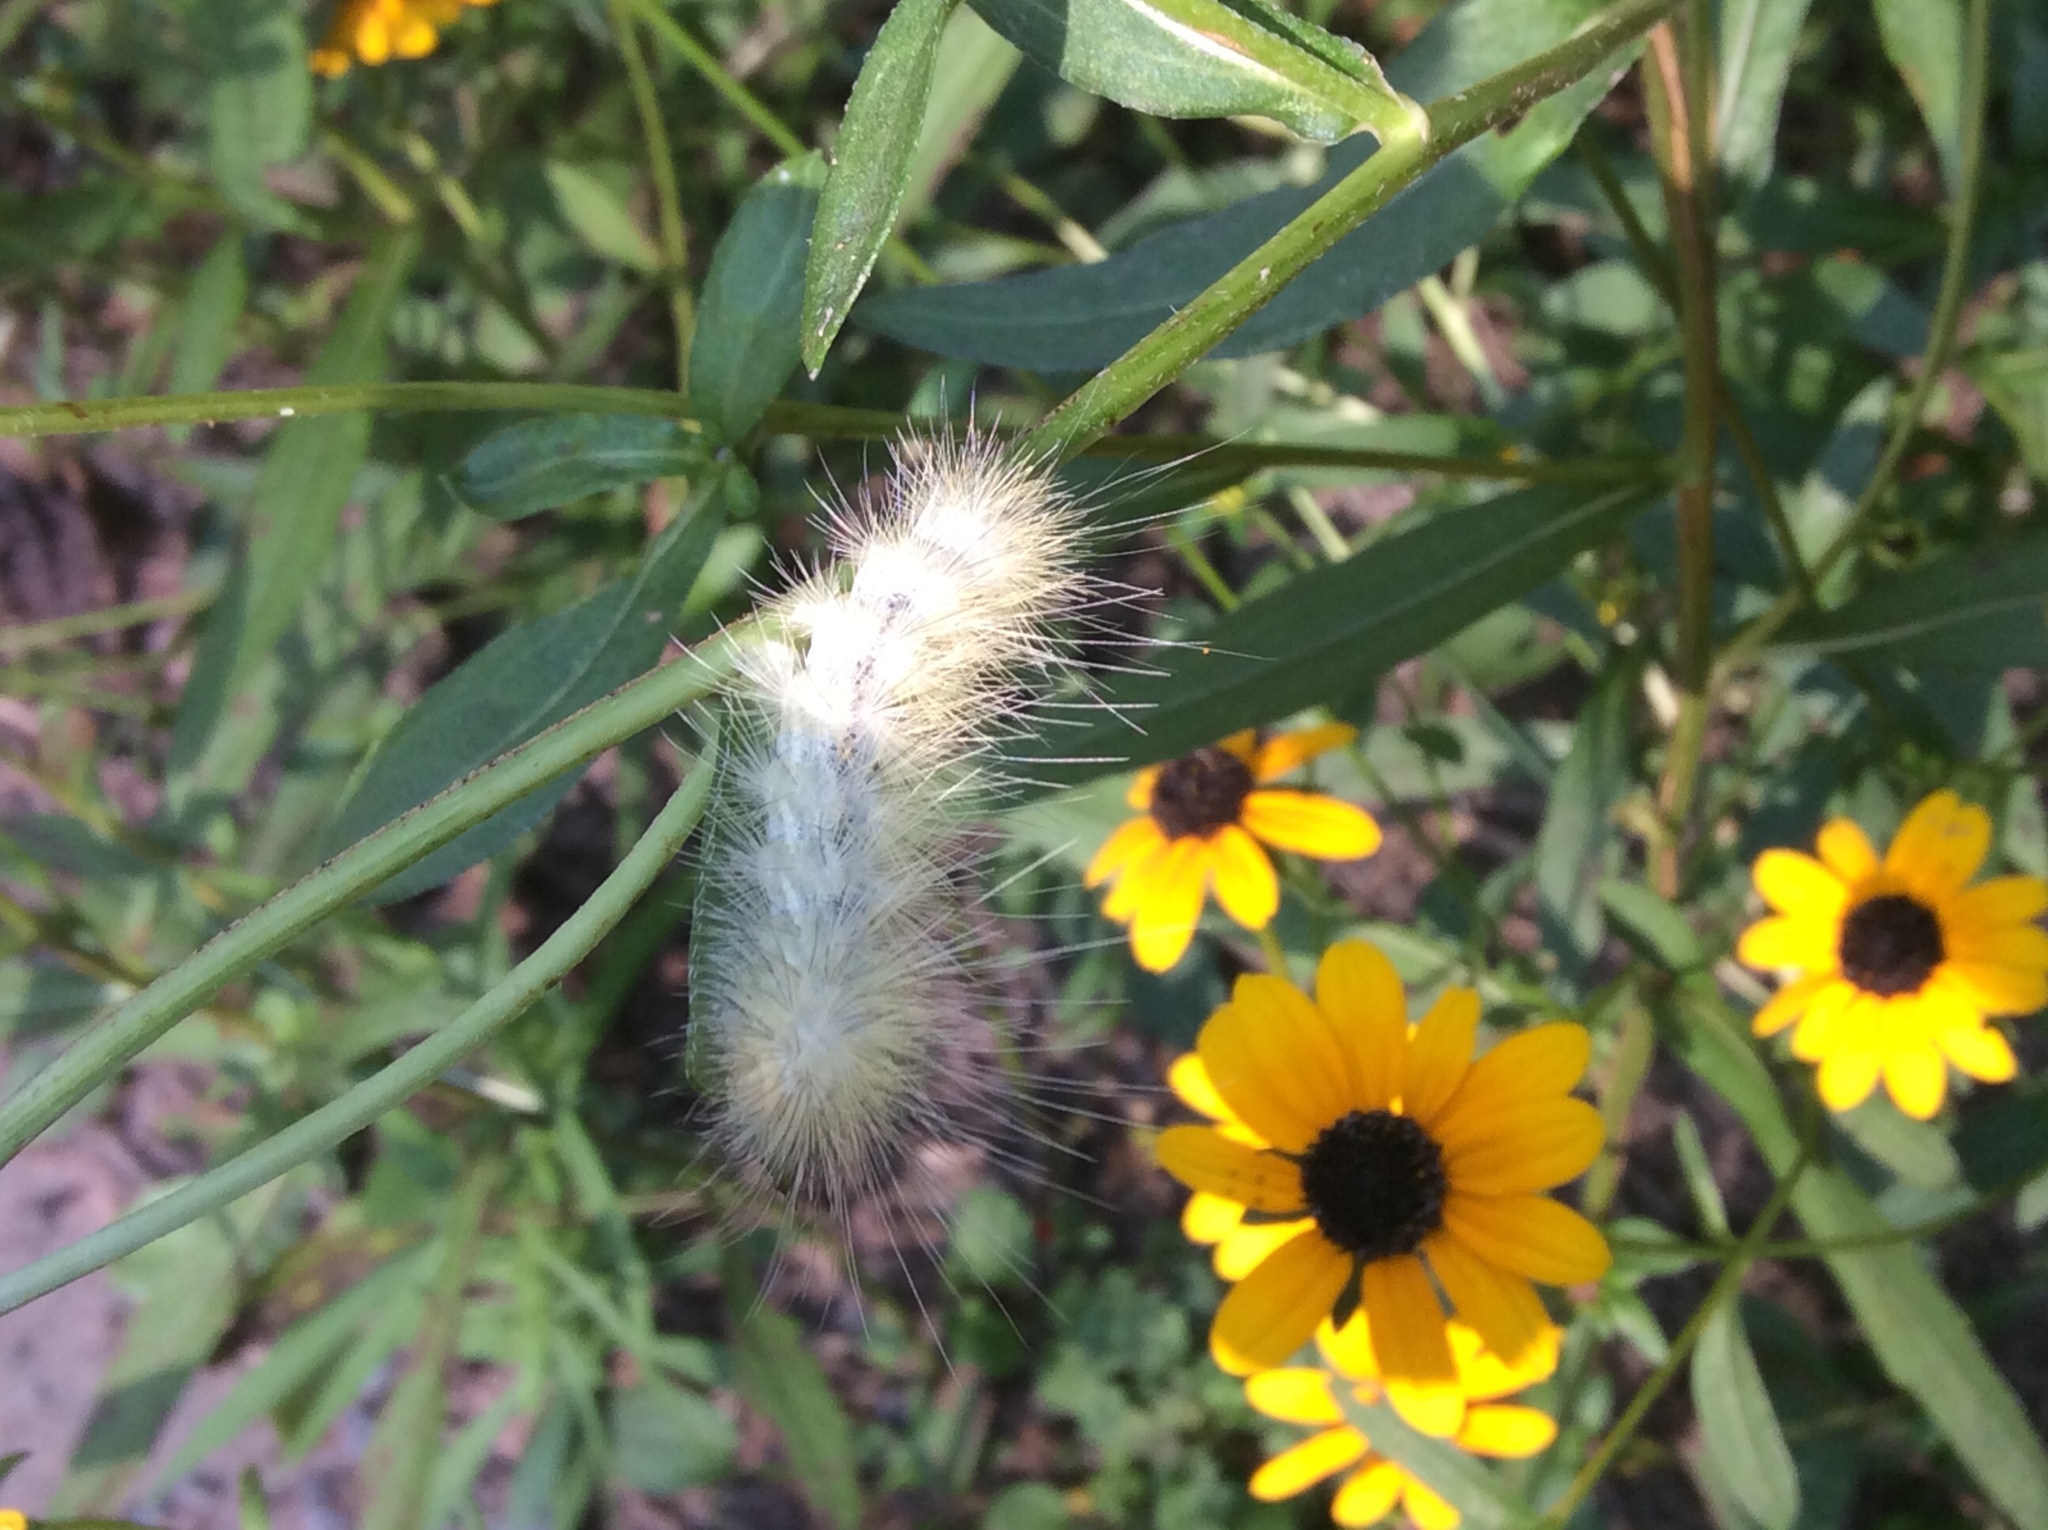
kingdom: Animalia
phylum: Arthropoda
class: Insecta
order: Lepidoptera
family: Erebidae
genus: Spilosoma
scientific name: Spilosoma virginica
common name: Virginia tiger moth
